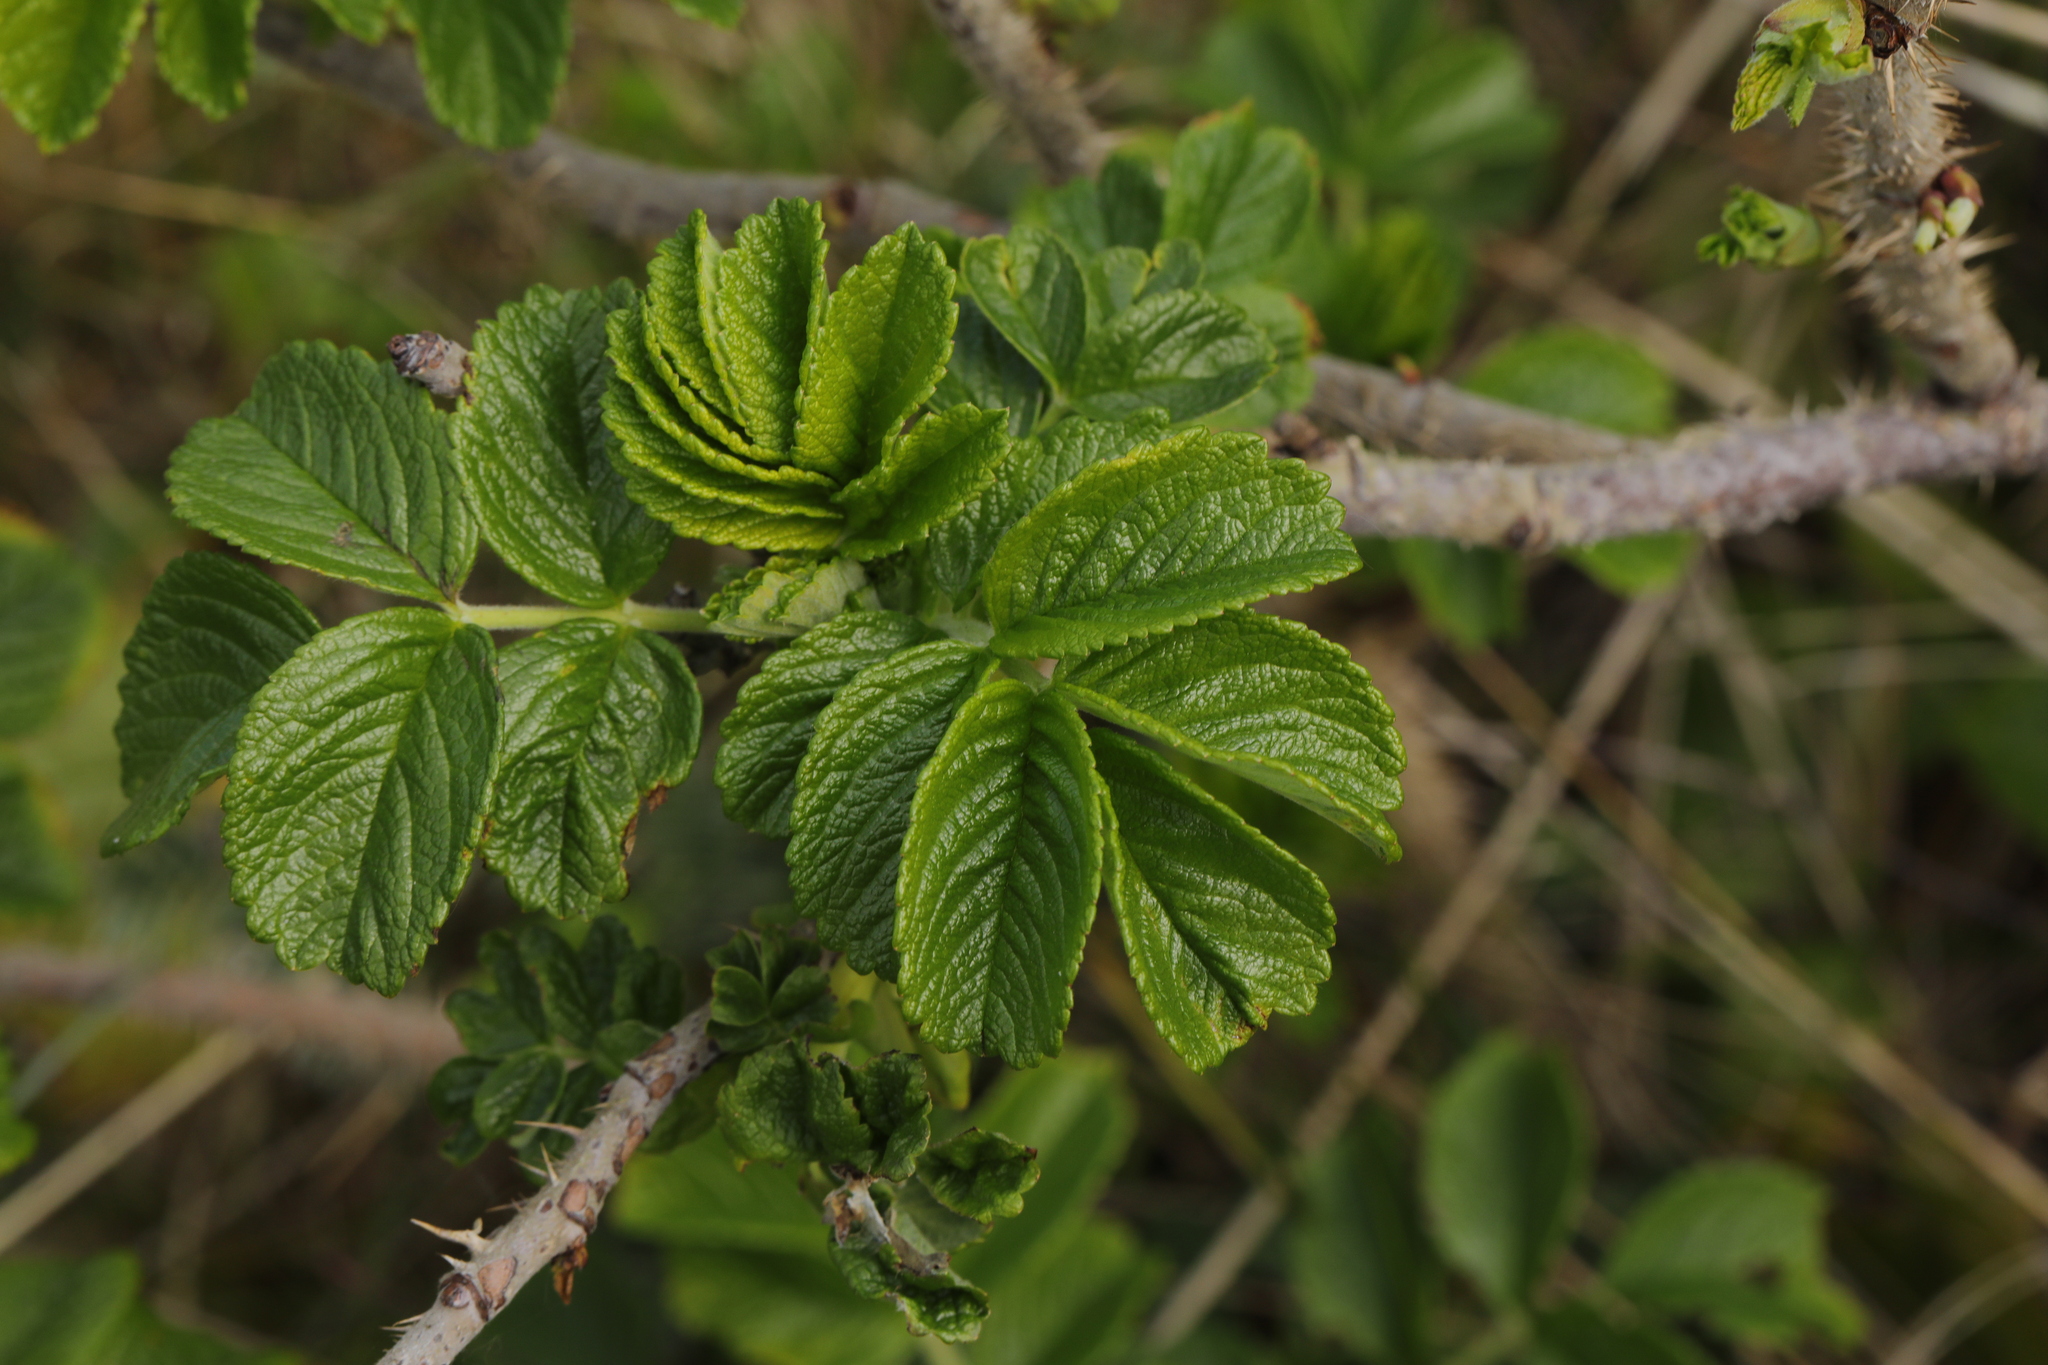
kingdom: Plantae
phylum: Tracheophyta
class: Magnoliopsida
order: Rosales
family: Rosaceae
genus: Rosa
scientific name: Rosa rugosa
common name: Japanese rose
